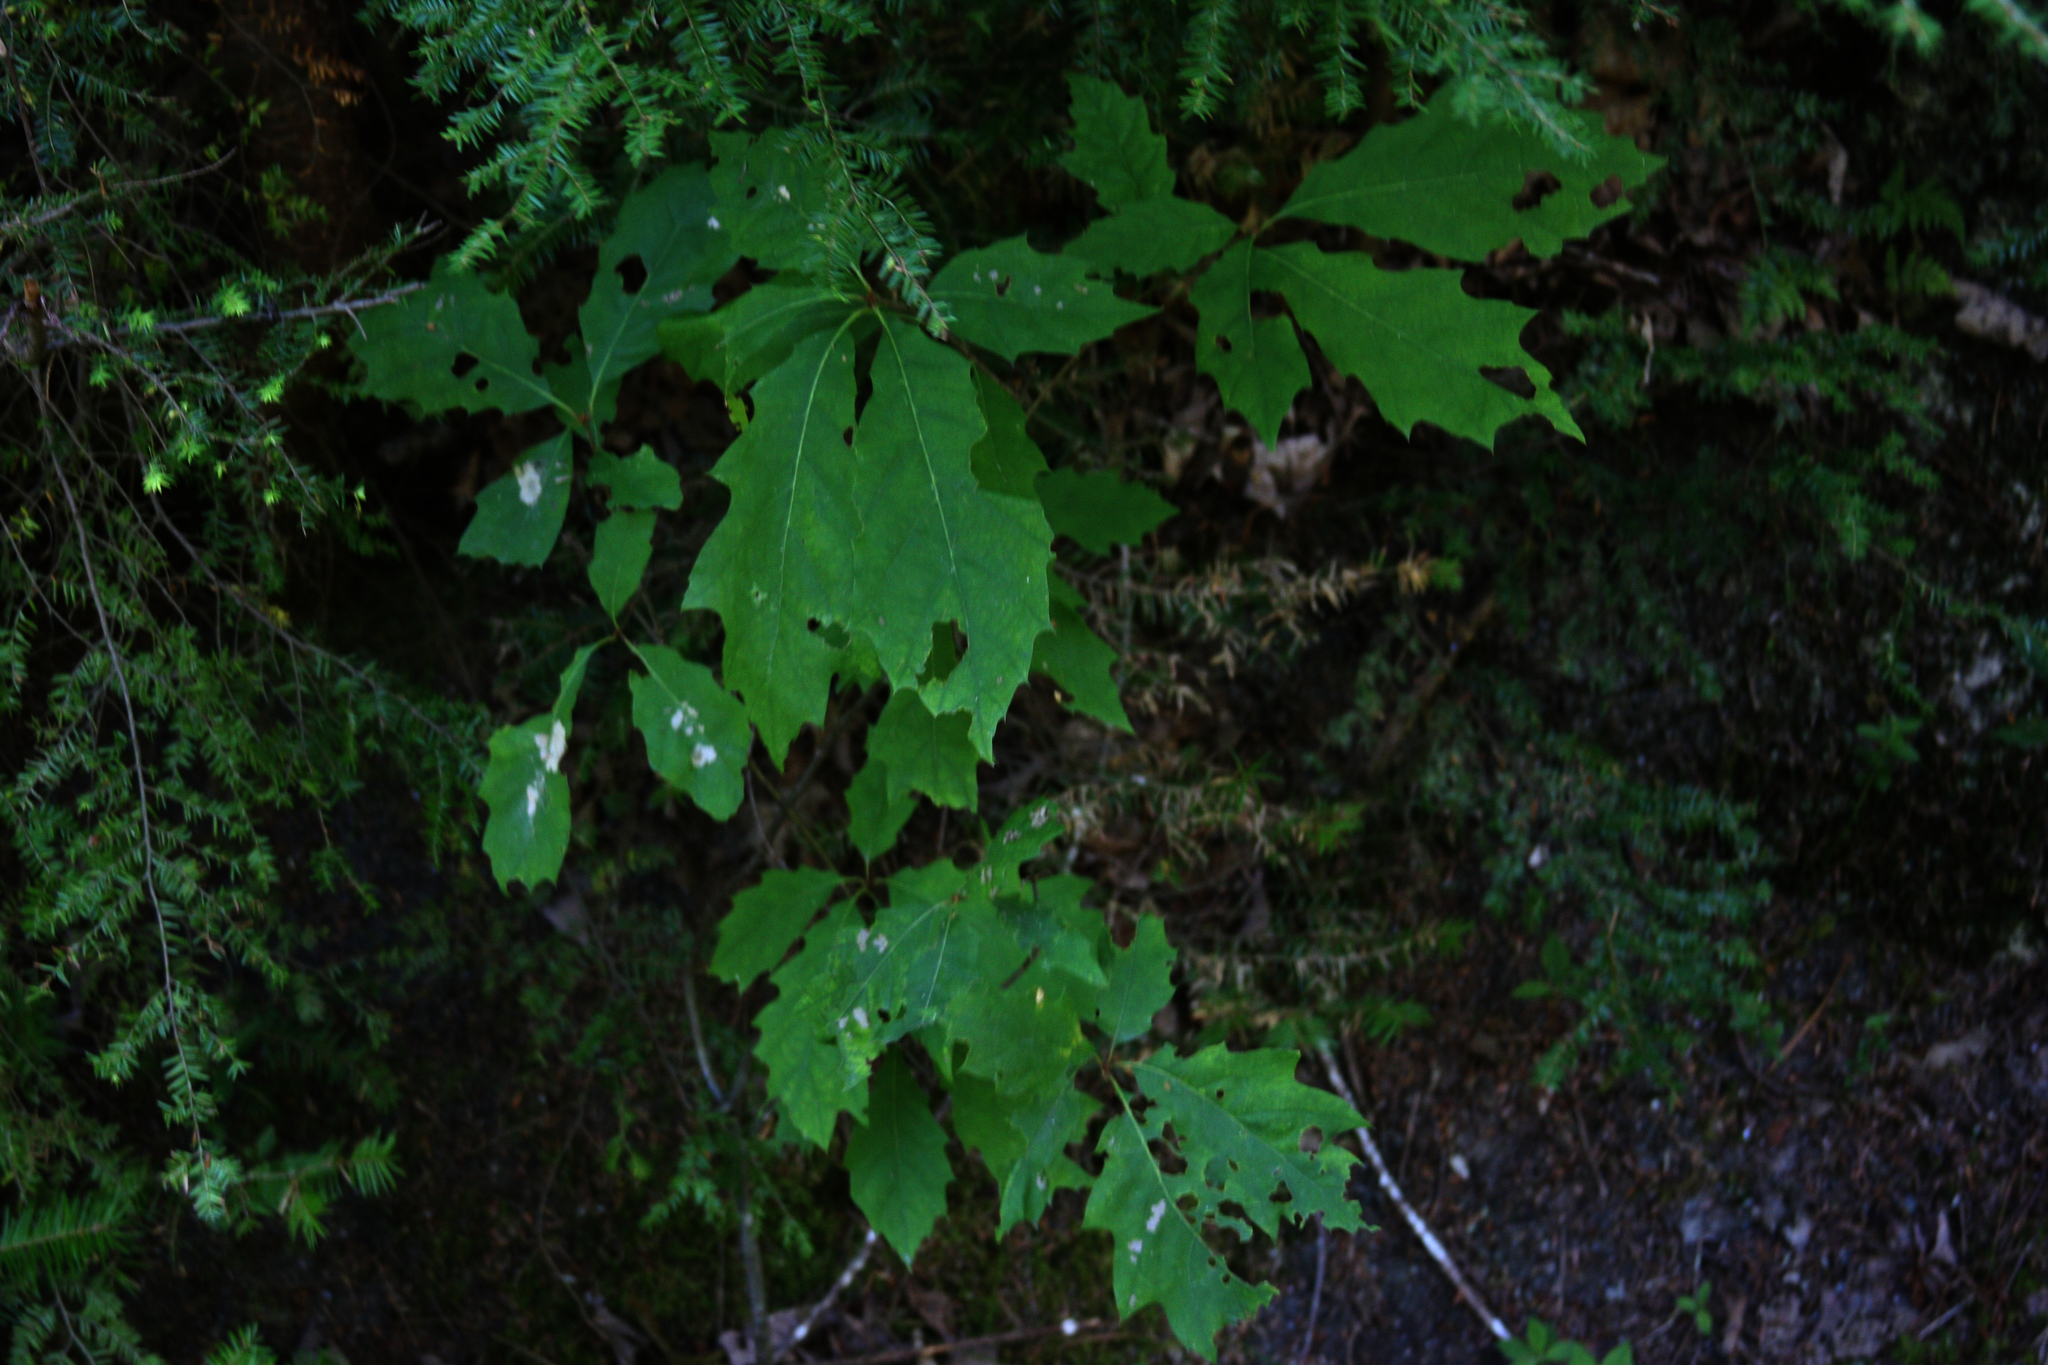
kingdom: Plantae
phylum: Tracheophyta
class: Pinopsida
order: Pinales
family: Pinaceae
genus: Tsuga
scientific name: Tsuga canadensis
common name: Eastern hemlock
